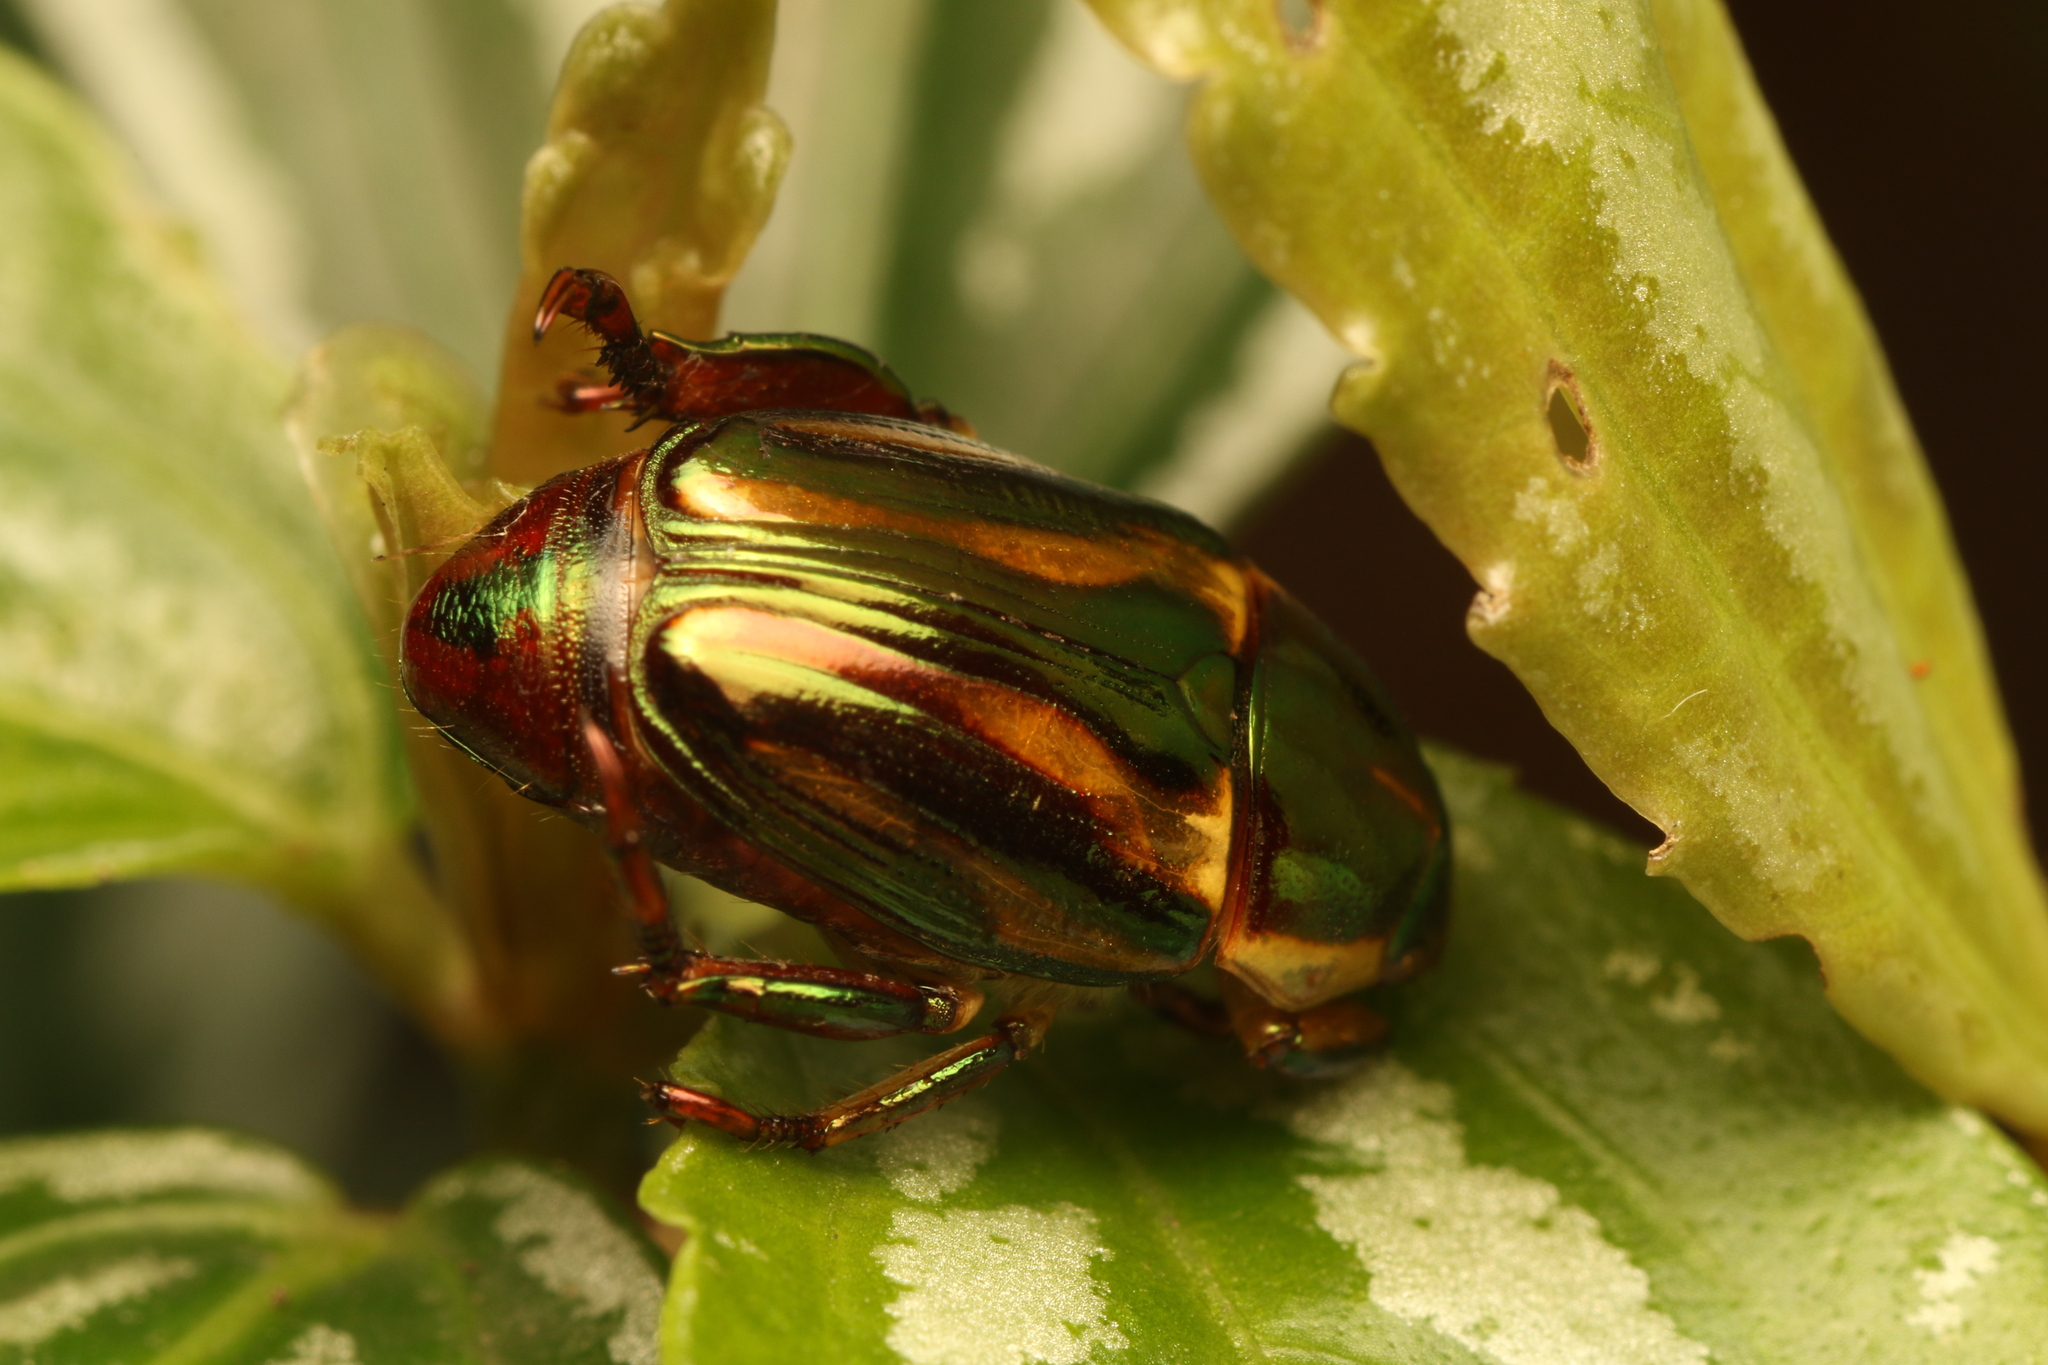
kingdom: Animalia
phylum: Arthropoda
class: Insecta
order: Coleoptera
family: Scarabaeidae
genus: Pelidnota
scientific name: Pelidnota liturella
